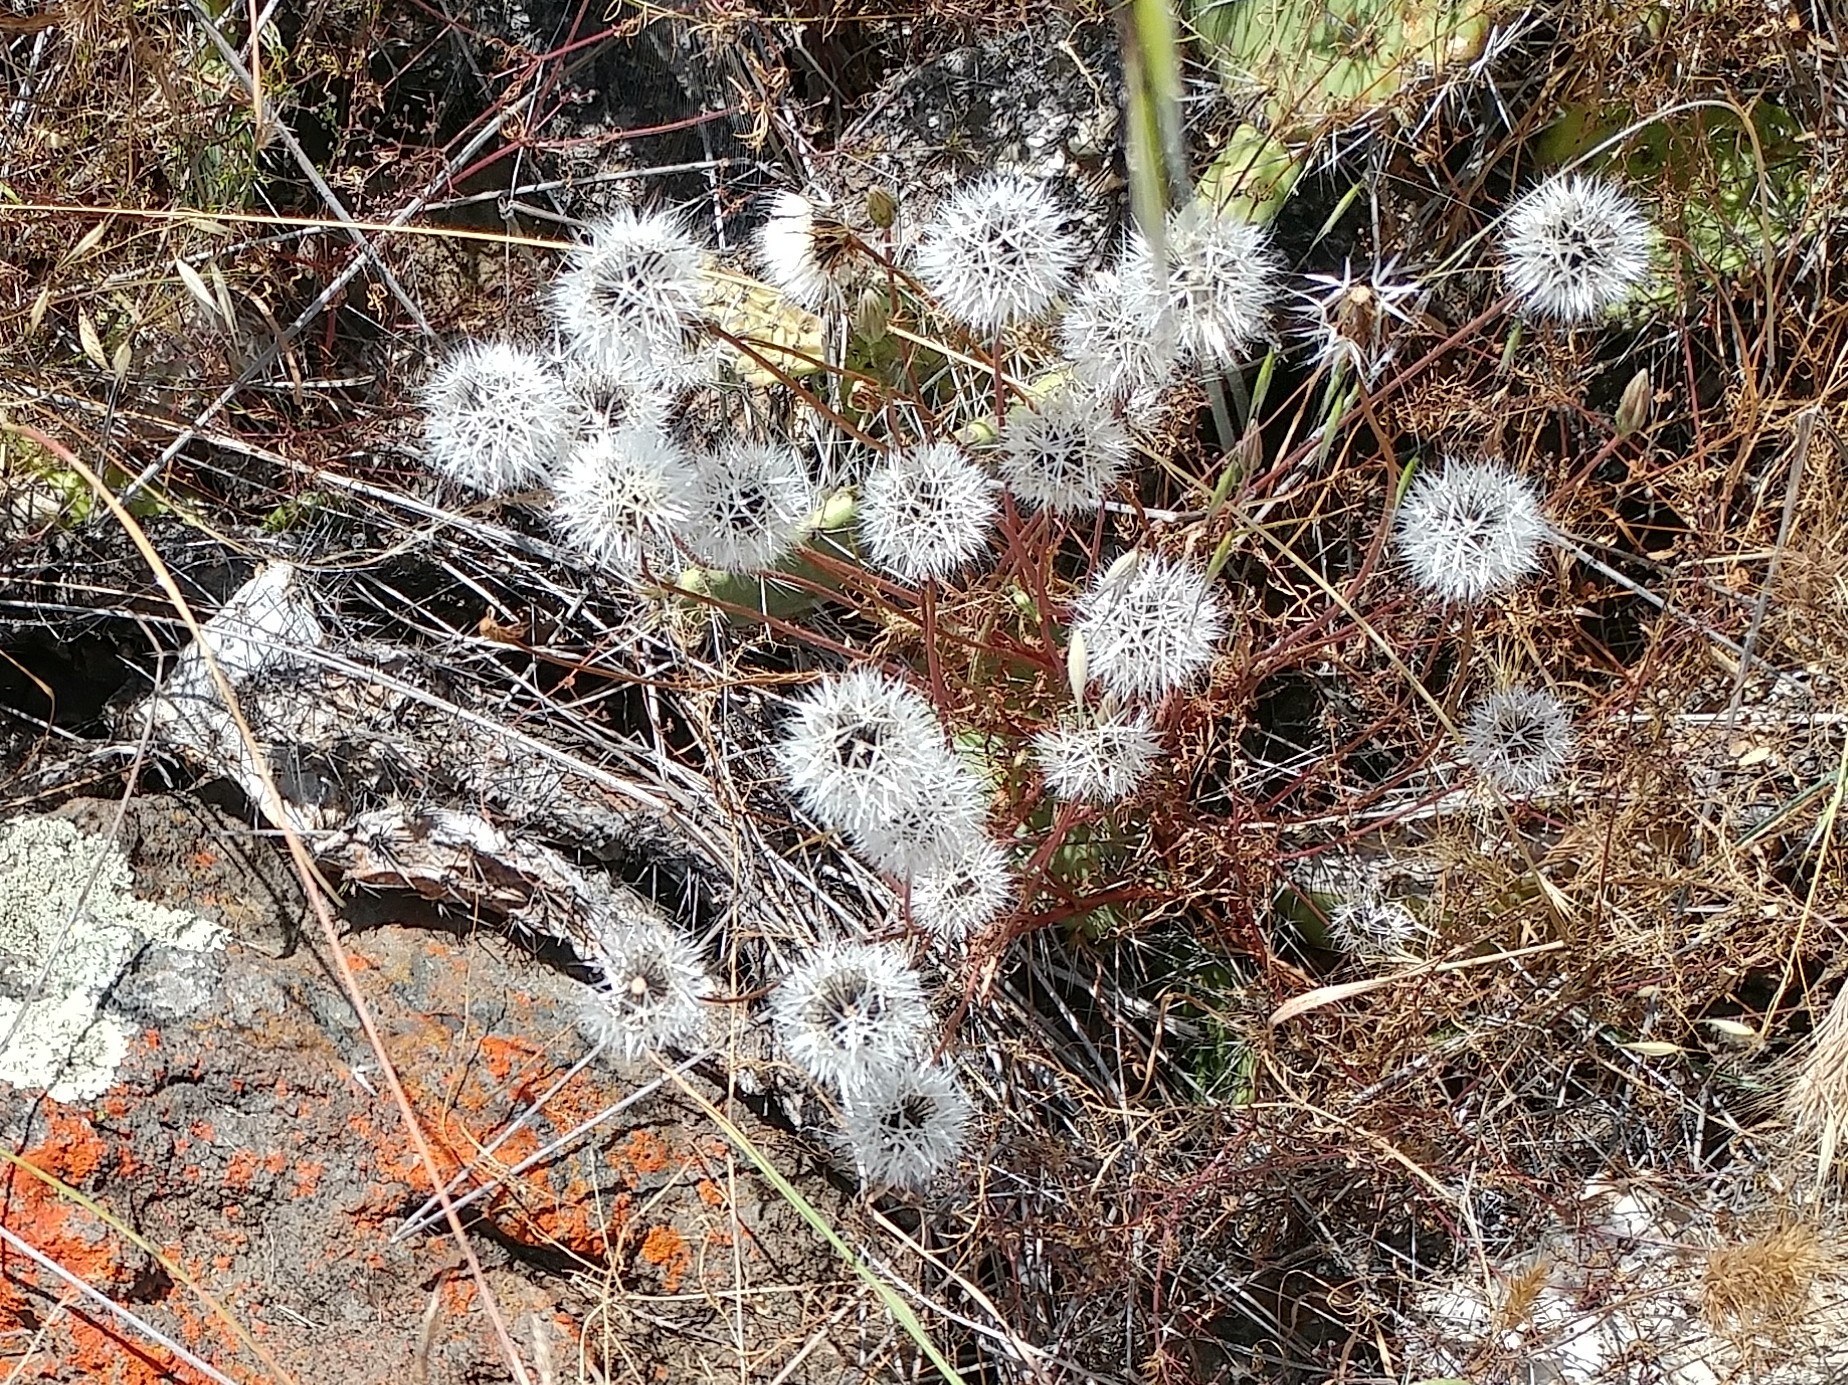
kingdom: Plantae
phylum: Tracheophyta
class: Magnoliopsida
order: Asterales
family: Asteraceae
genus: Microseris
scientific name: Microseris lindleyi
